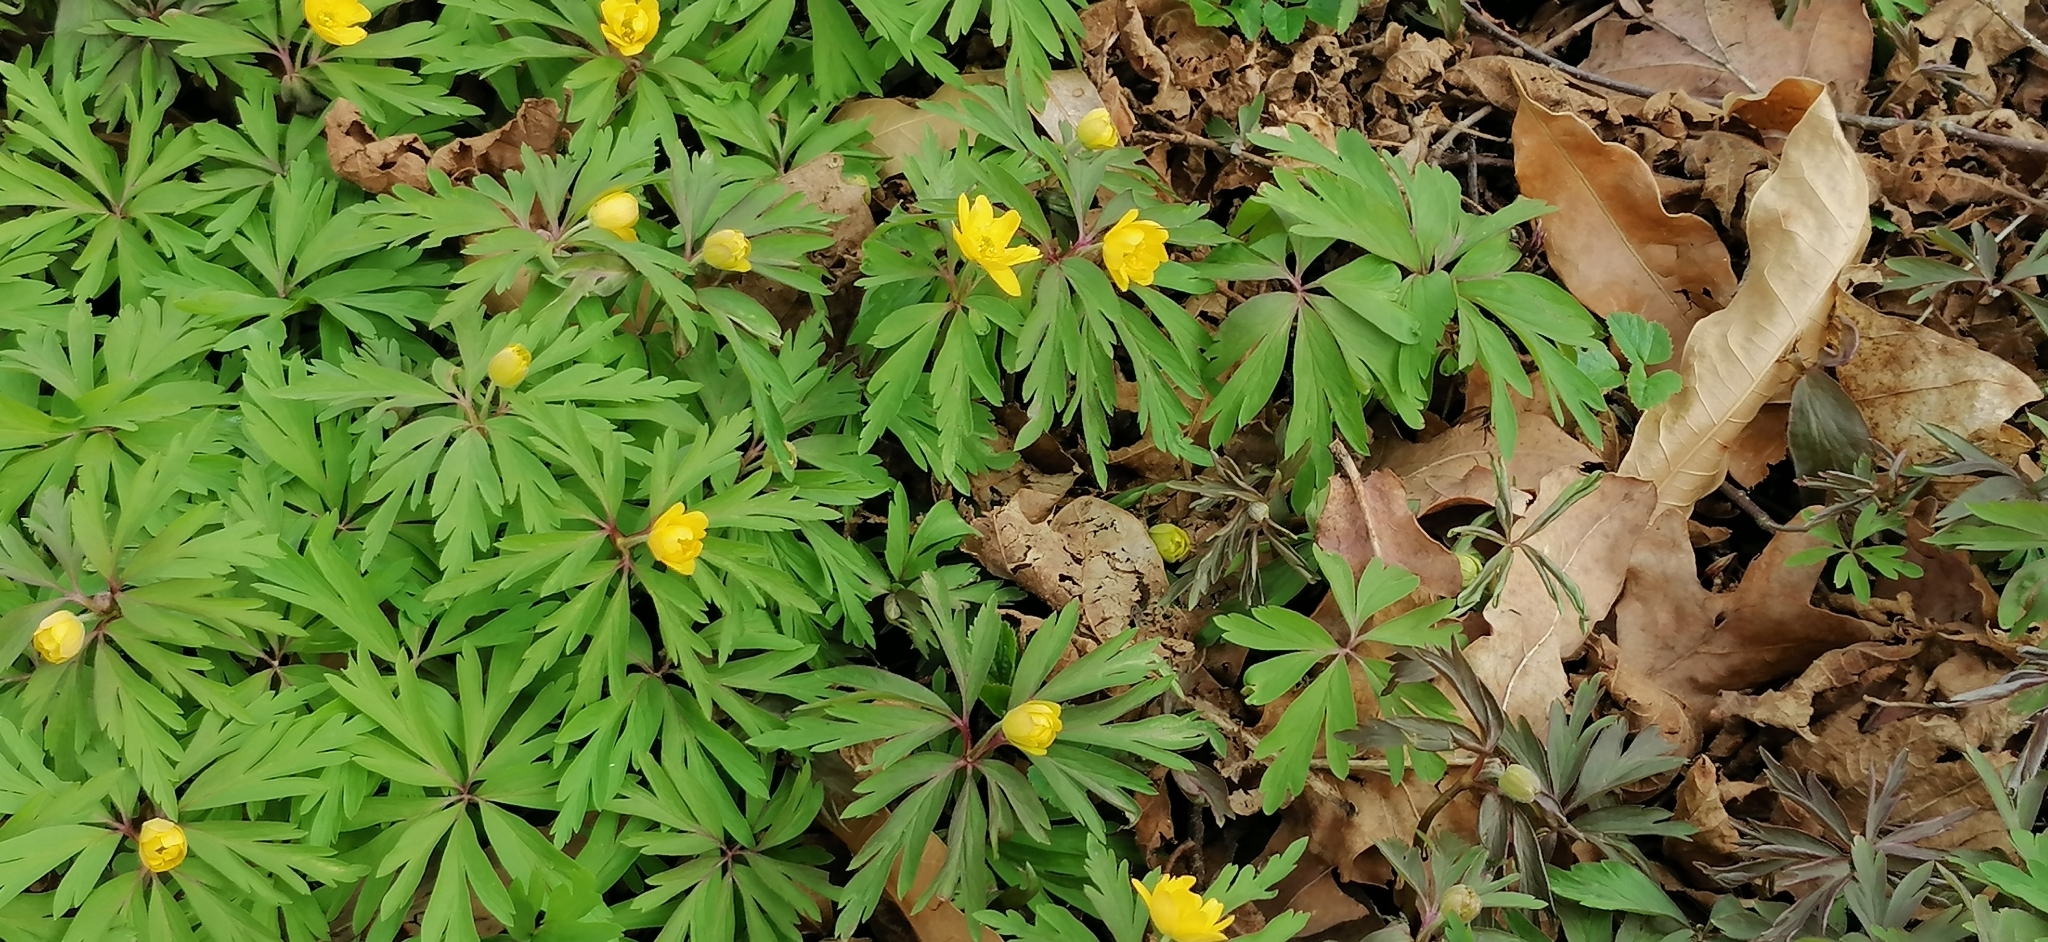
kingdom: Plantae
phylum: Tracheophyta
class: Magnoliopsida
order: Ranunculales
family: Ranunculaceae
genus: Anemone
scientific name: Anemone ranunculoides
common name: Yellow anemone
